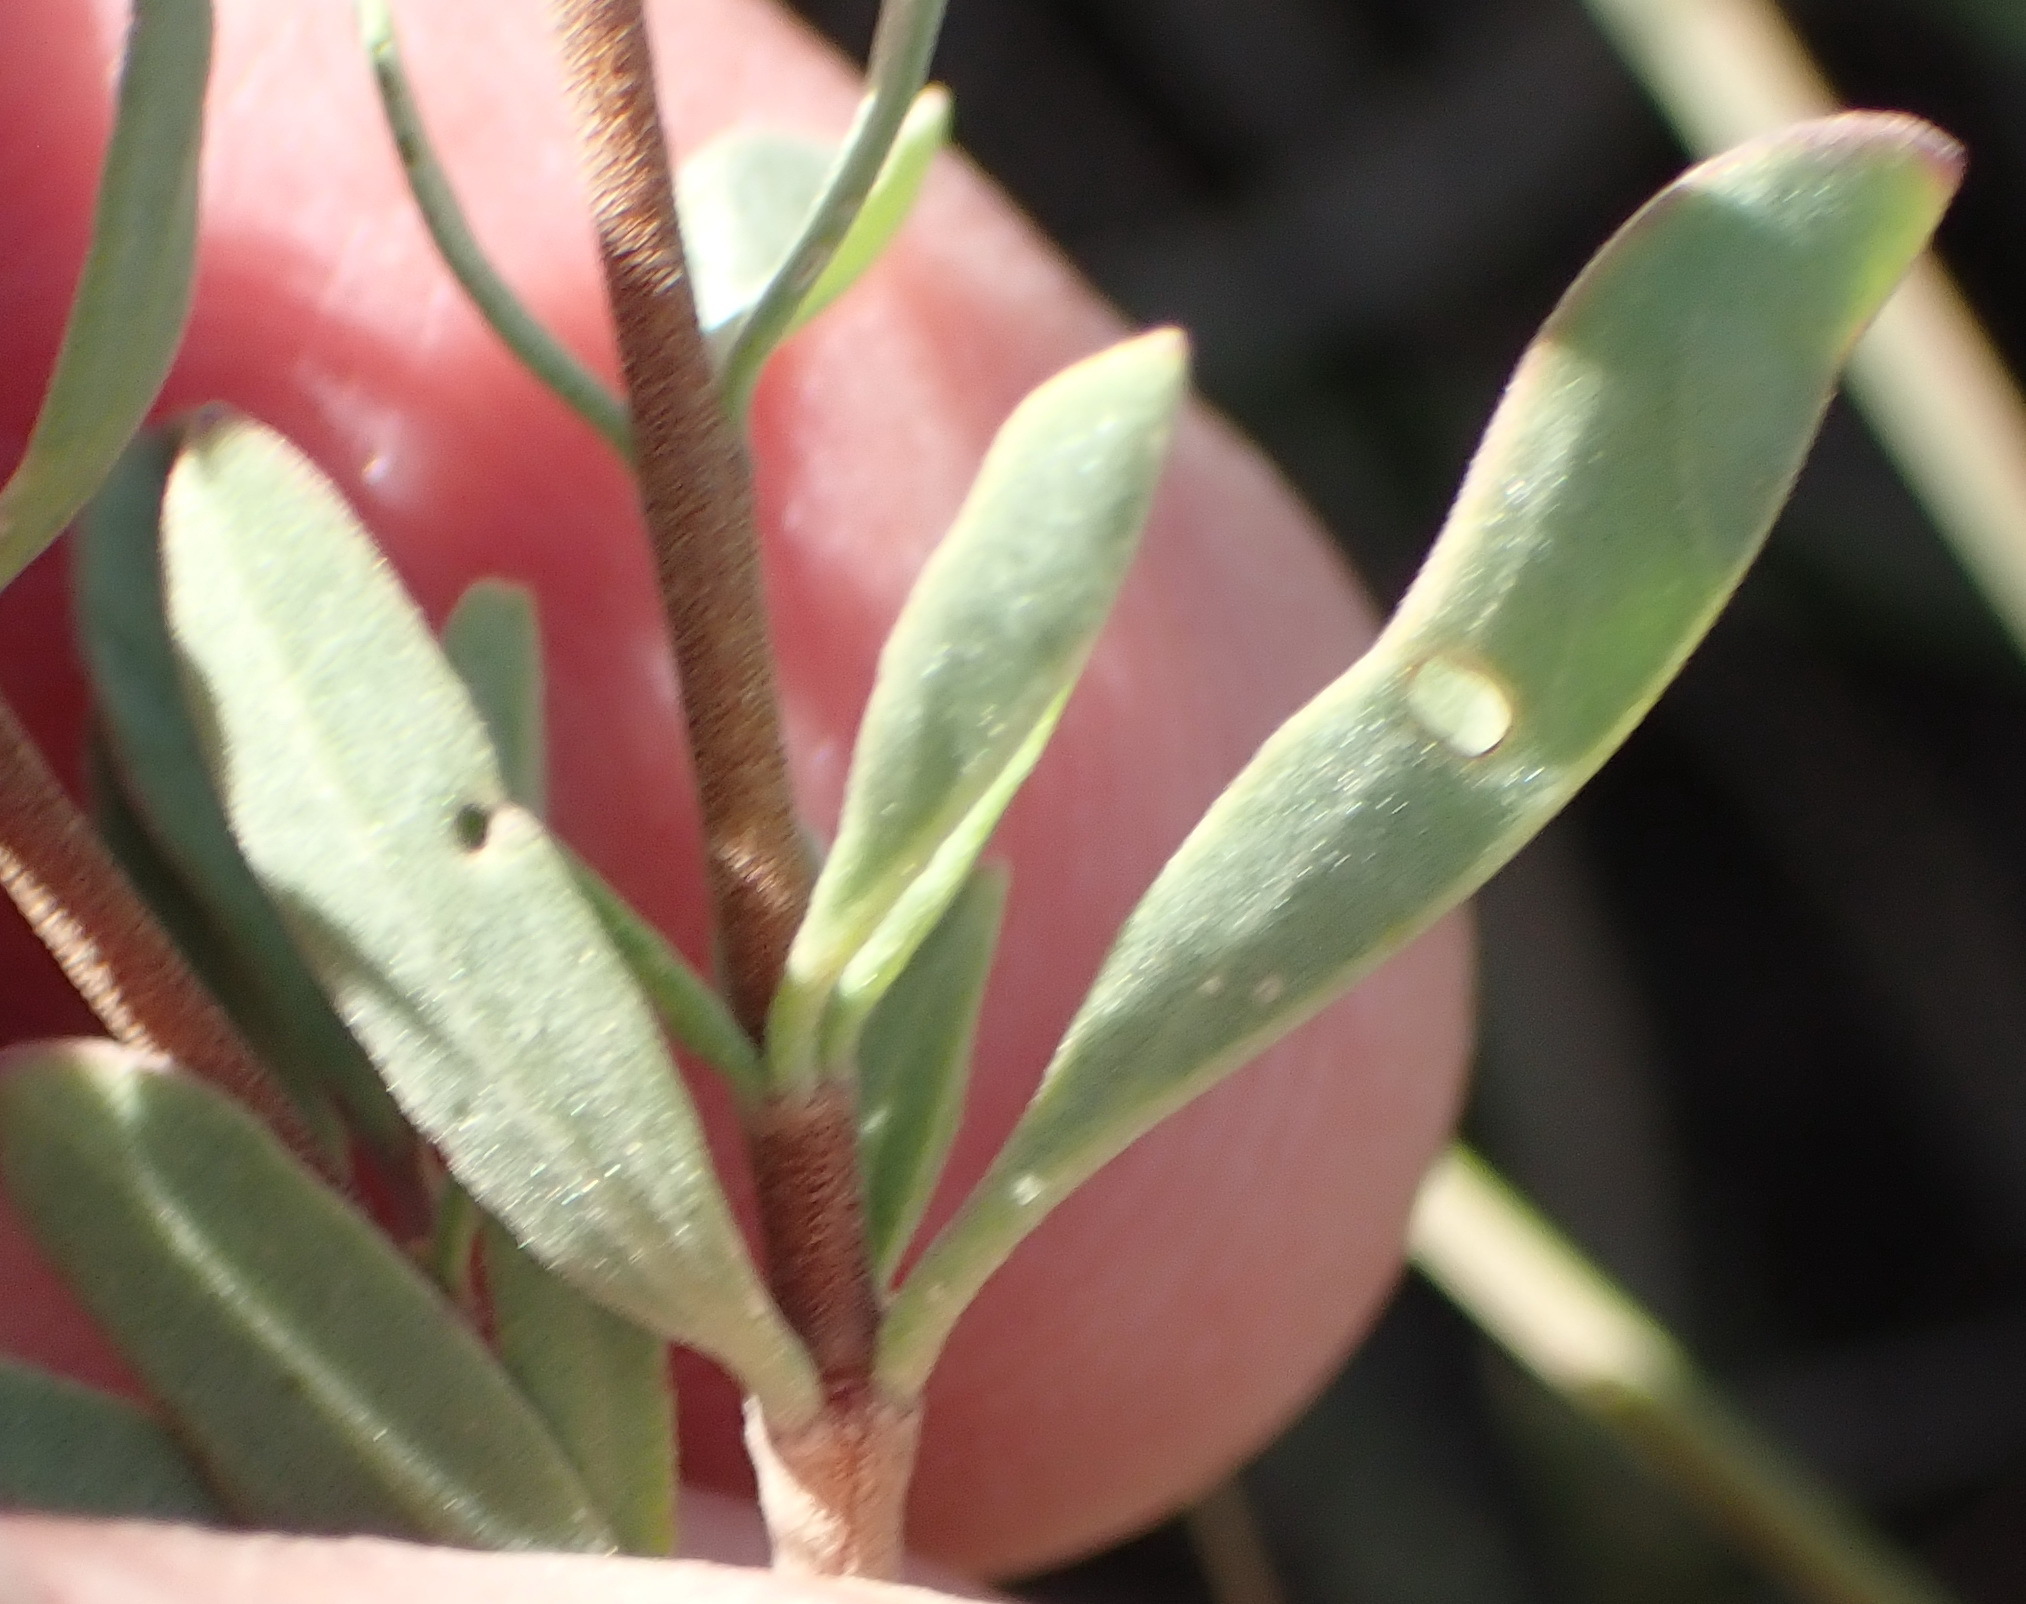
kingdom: Plantae
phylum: Tracheophyta
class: Magnoliopsida
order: Malvales
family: Malvaceae
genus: Hermannia
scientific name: Hermannia gracilis
